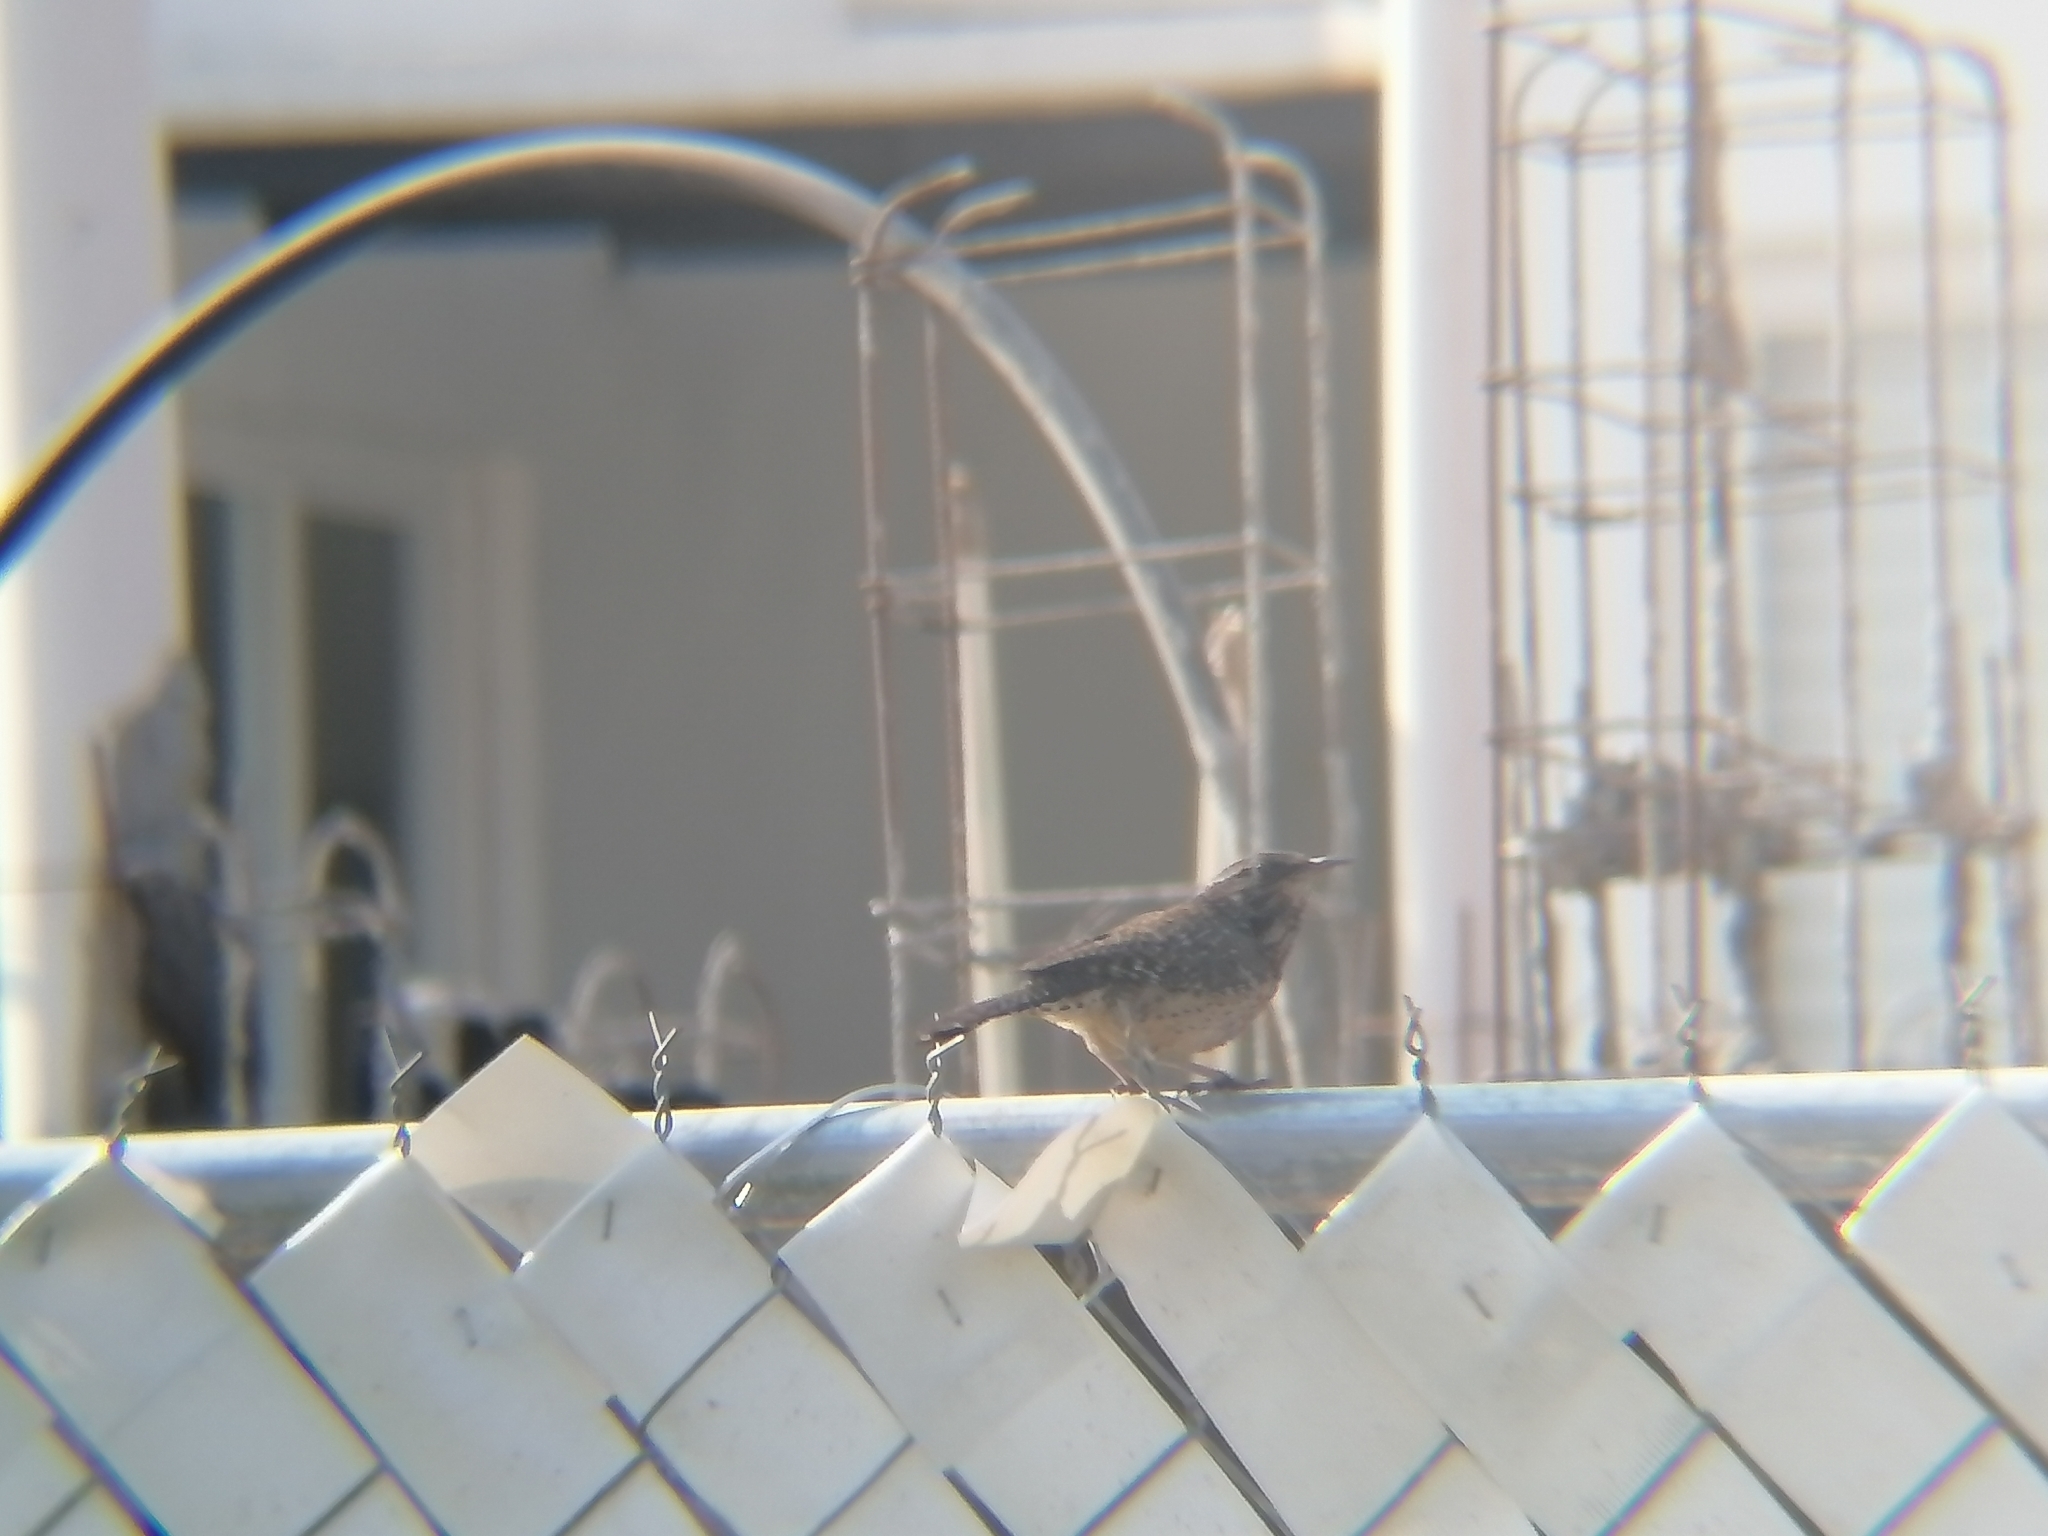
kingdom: Animalia
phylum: Chordata
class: Aves
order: Passeriformes
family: Troglodytidae
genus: Campylorhynchus
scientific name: Campylorhynchus brunneicapillus
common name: Cactus wren
